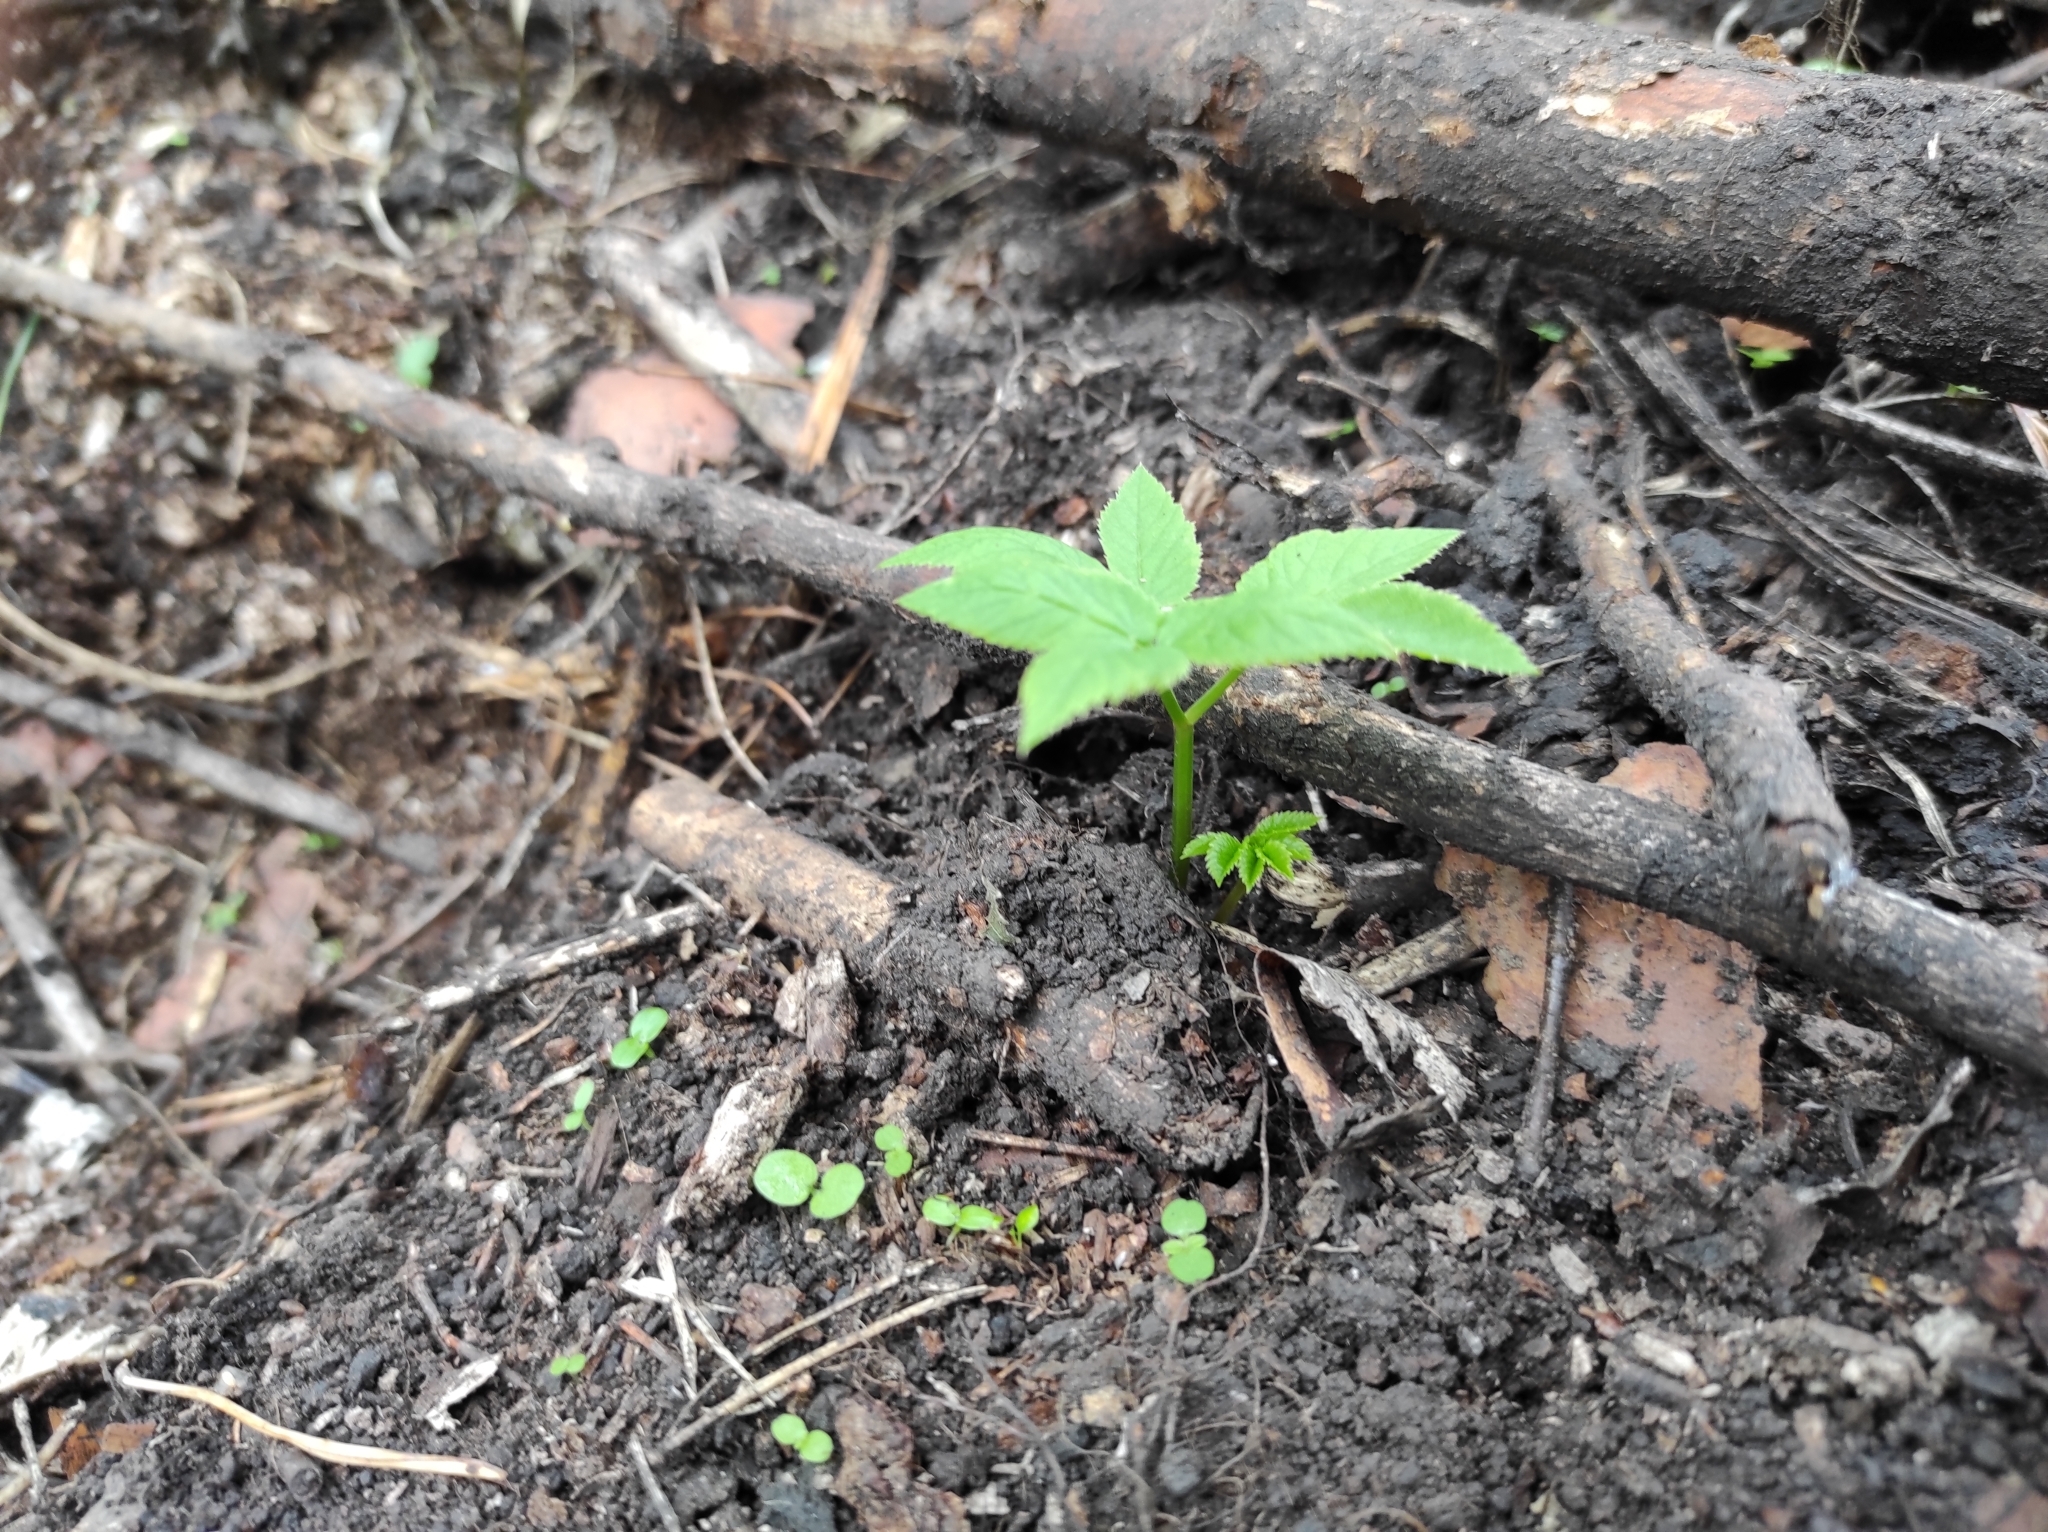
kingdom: Plantae
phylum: Tracheophyta
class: Magnoliopsida
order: Apiales
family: Apiaceae
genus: Aegopodium
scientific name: Aegopodium podagraria
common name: Ground-elder
